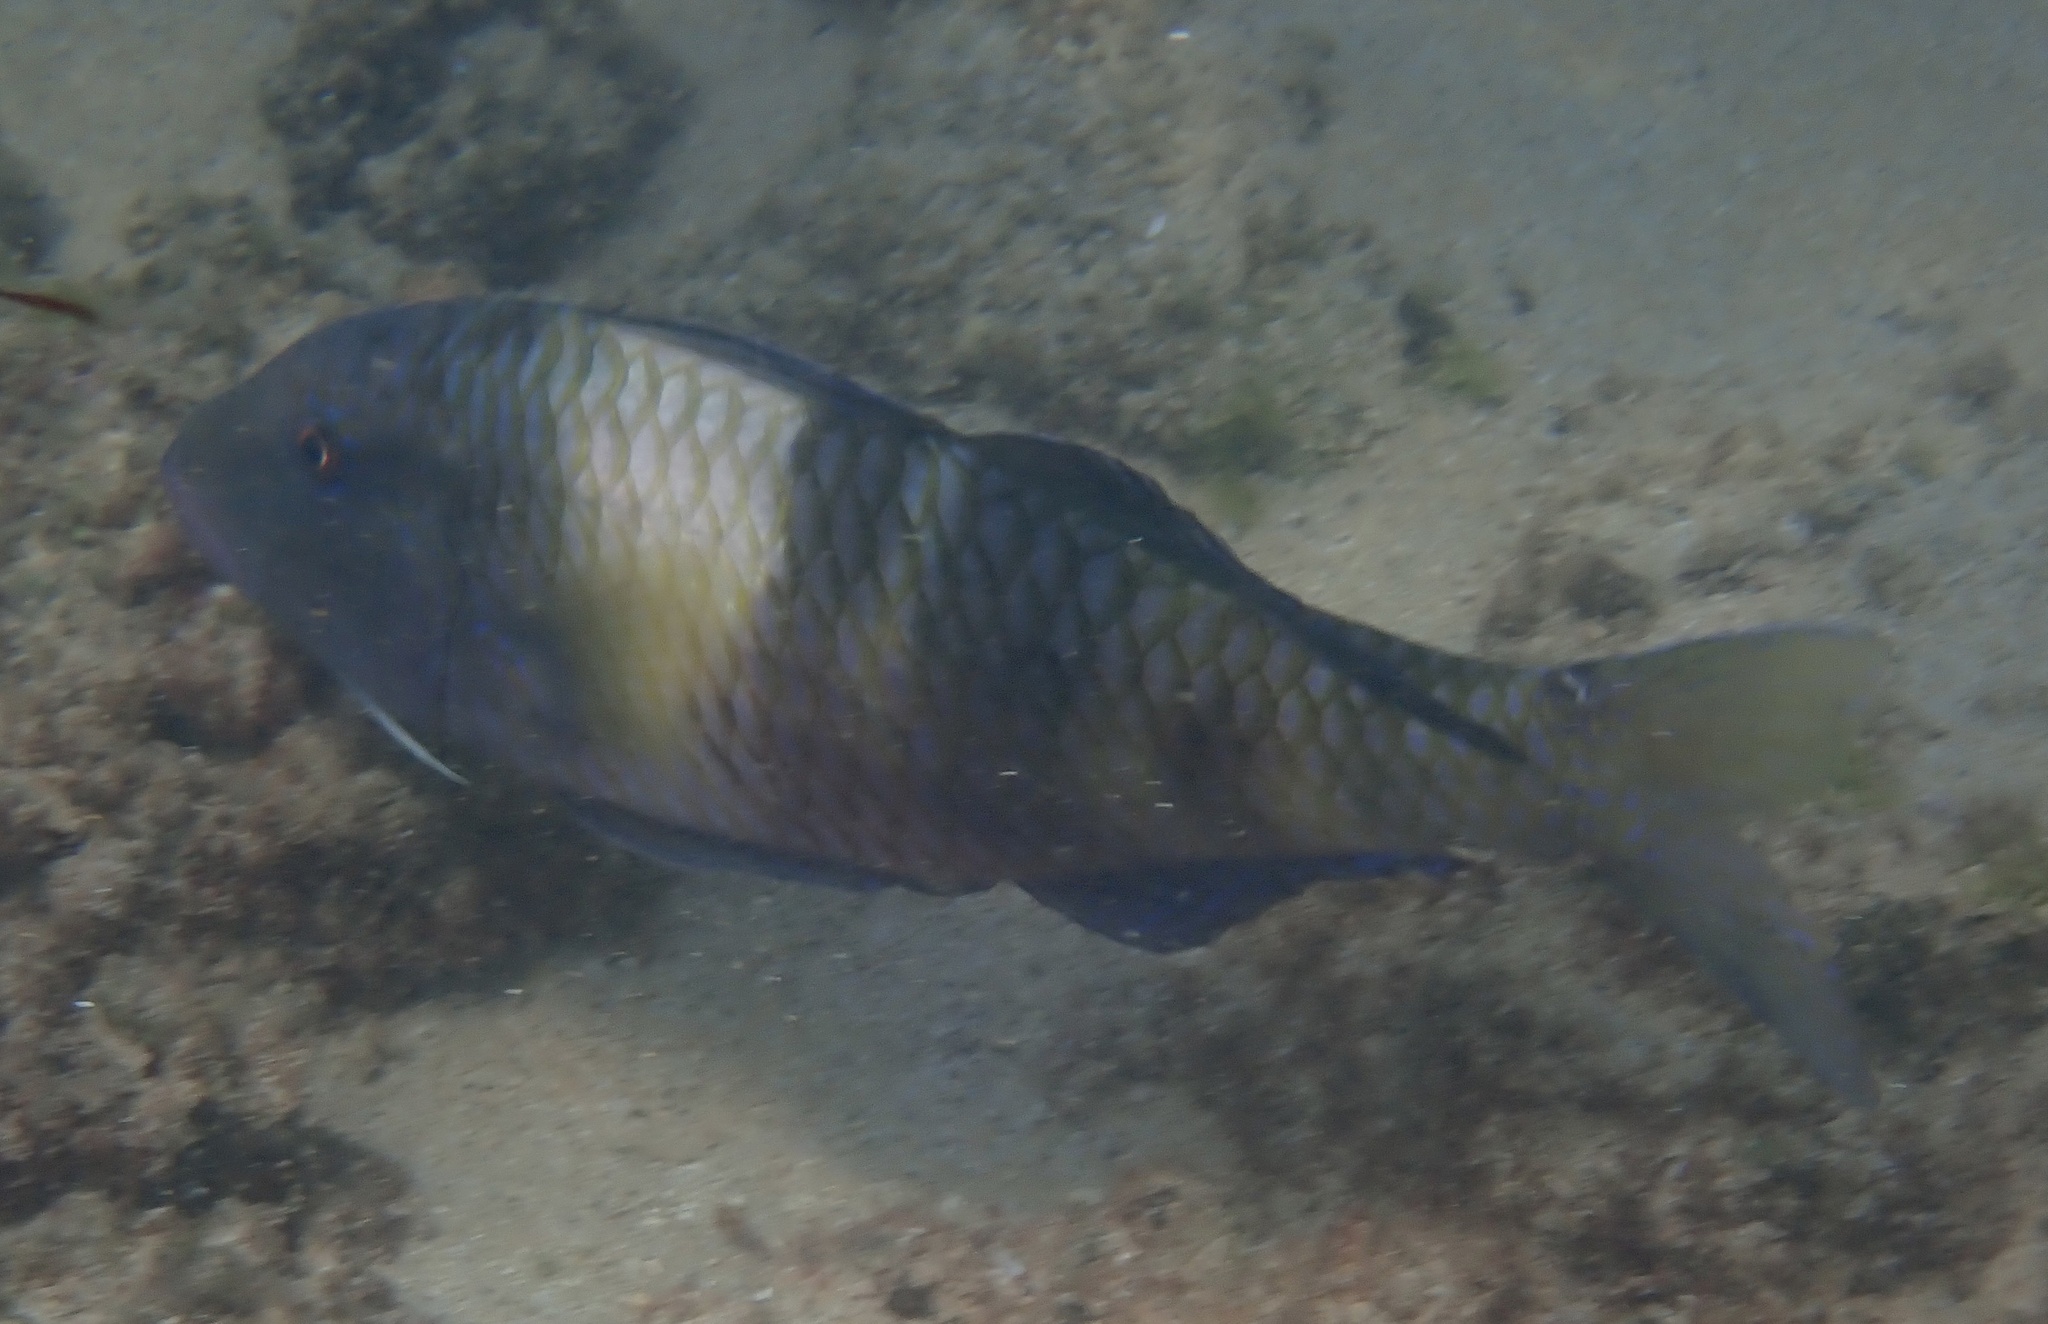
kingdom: Animalia
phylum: Chordata
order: Perciformes
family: Mullidae
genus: Parupeneus
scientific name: Parupeneus multifasciatus
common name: Manybar goatfish
